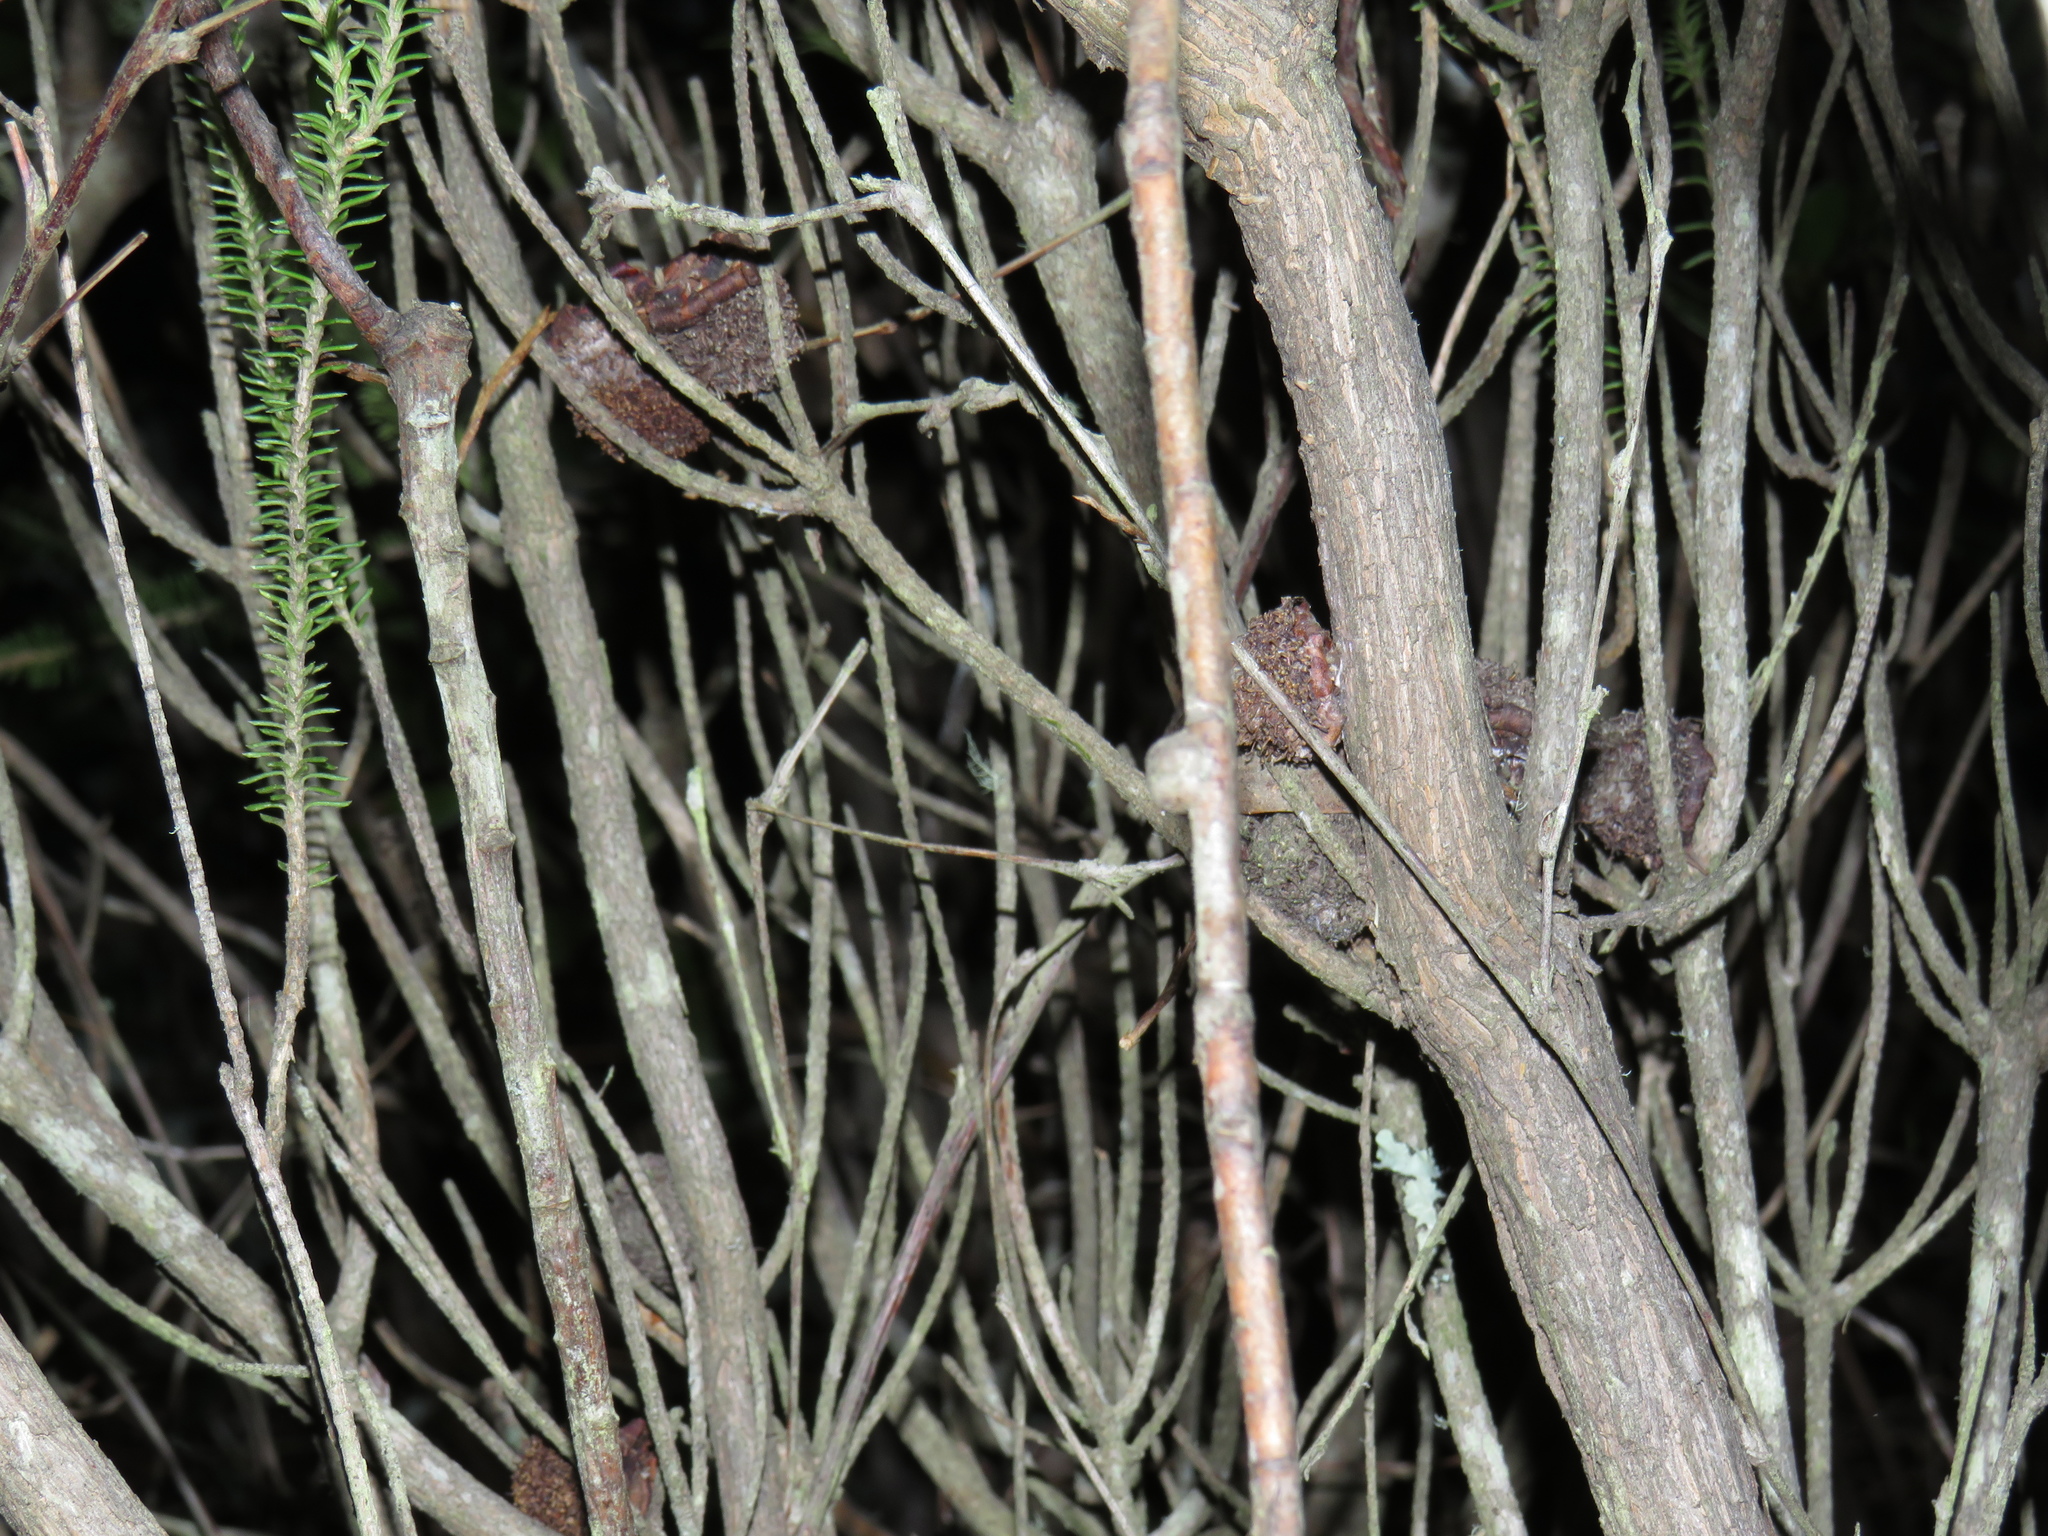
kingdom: Plantae
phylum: Tracheophyta
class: Magnoliopsida
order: Lamiales
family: Stilbaceae
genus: Stilbe
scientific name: Stilbe vestita
